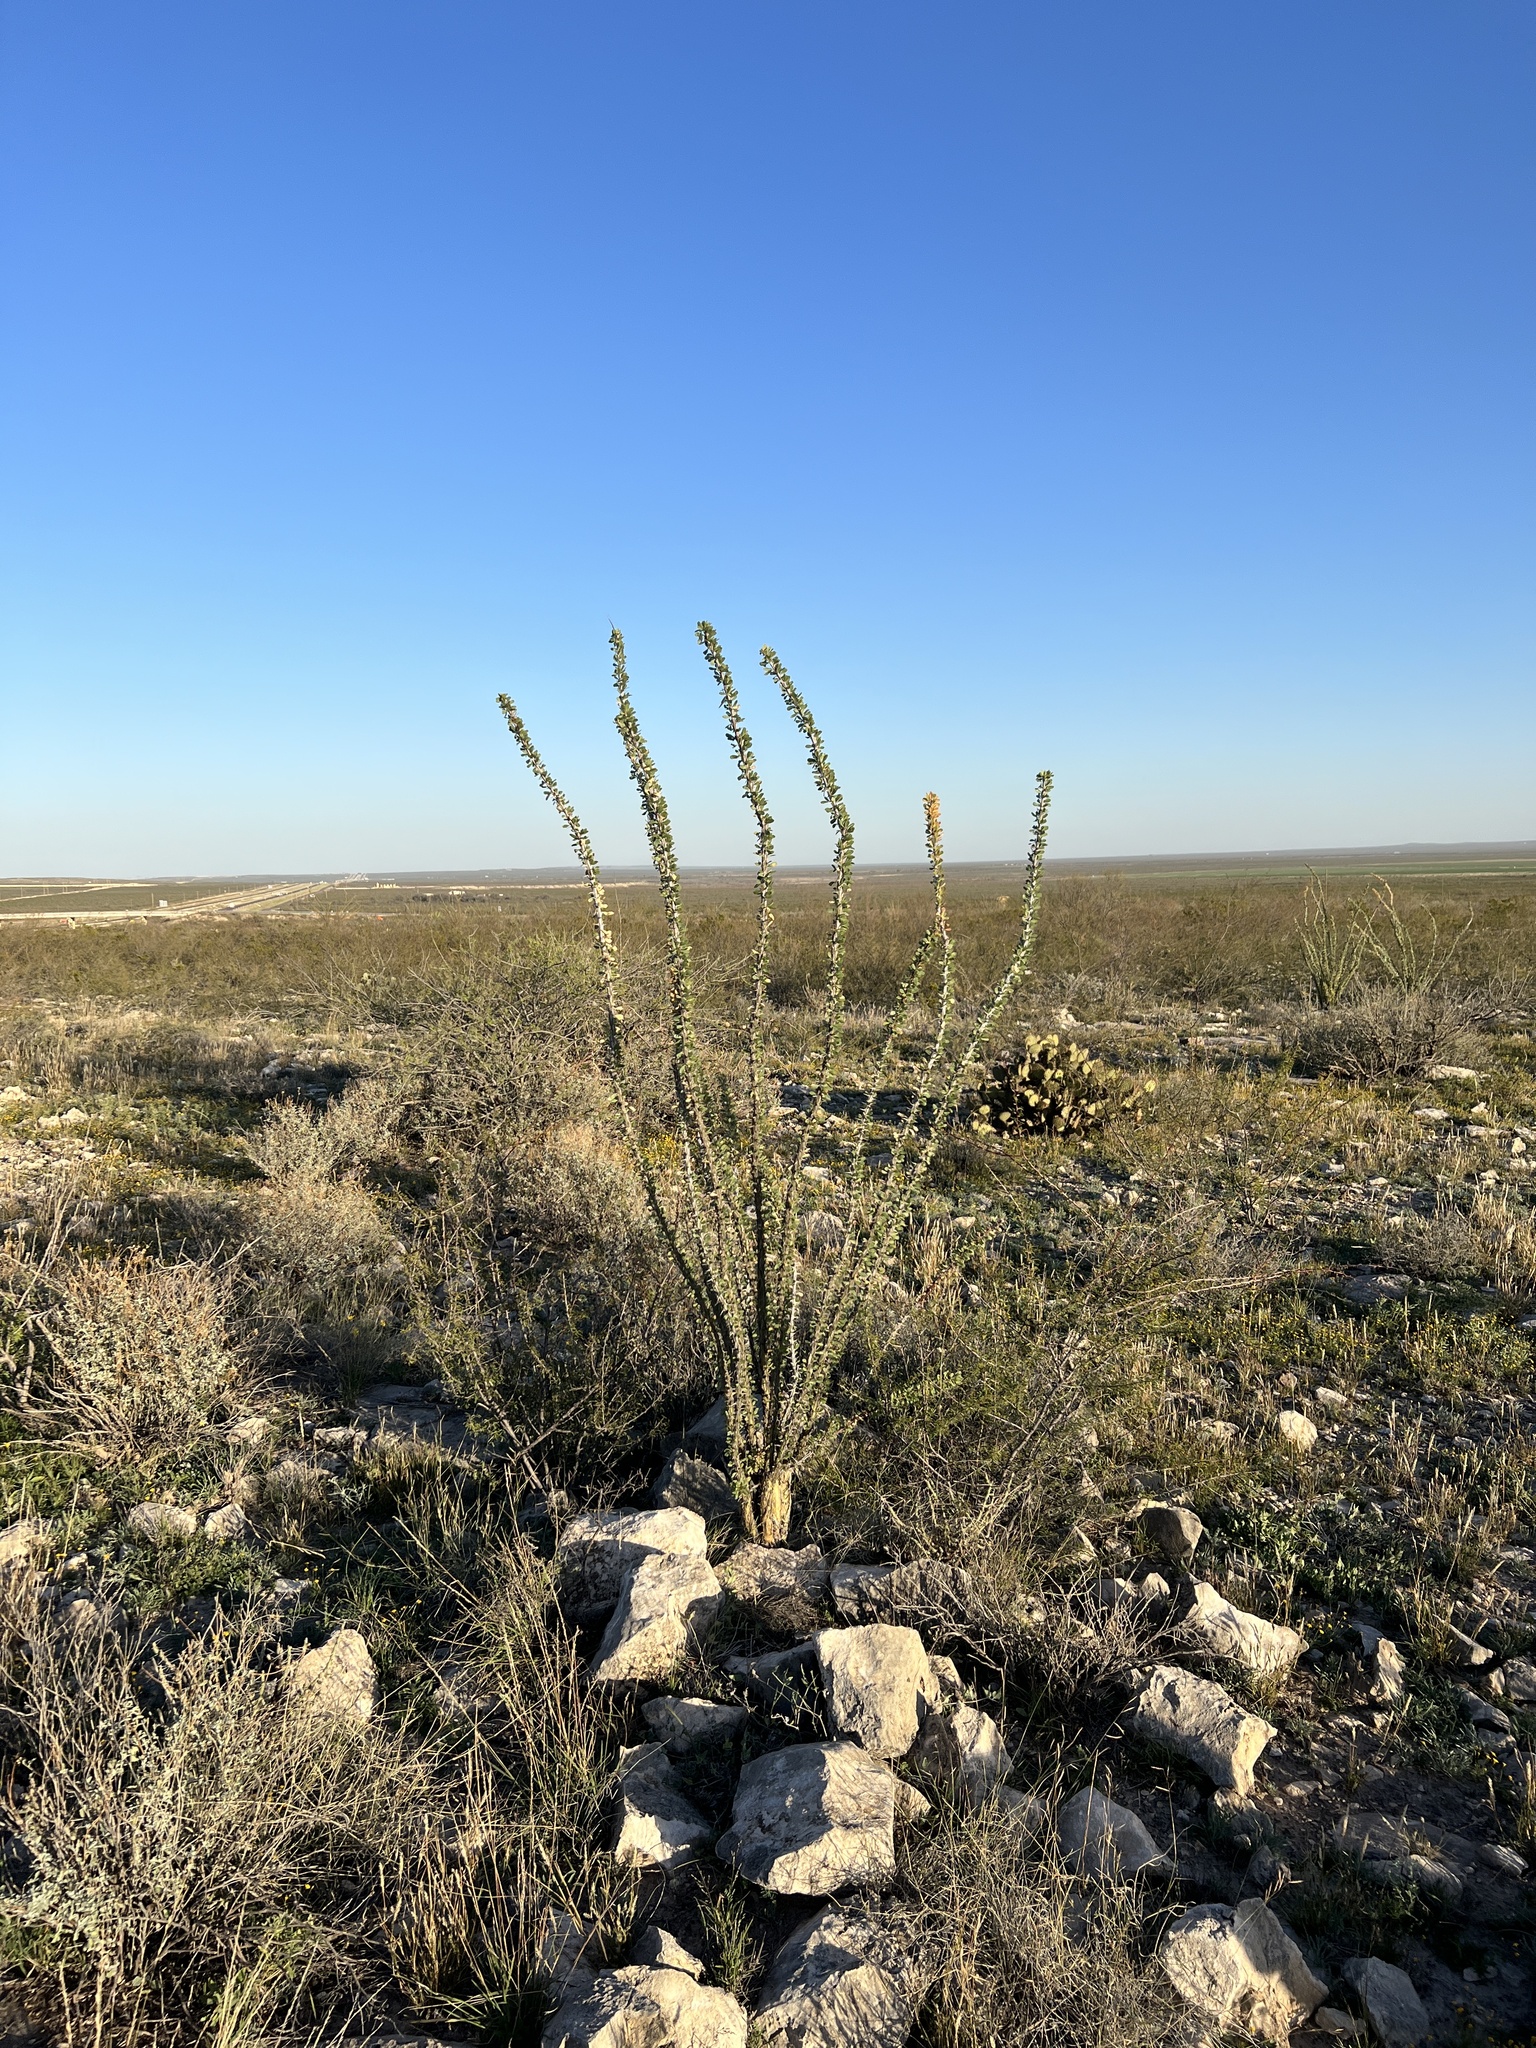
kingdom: Plantae
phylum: Tracheophyta
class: Magnoliopsida
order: Ericales
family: Fouquieriaceae
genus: Fouquieria
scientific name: Fouquieria splendens
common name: Vine-cactus
